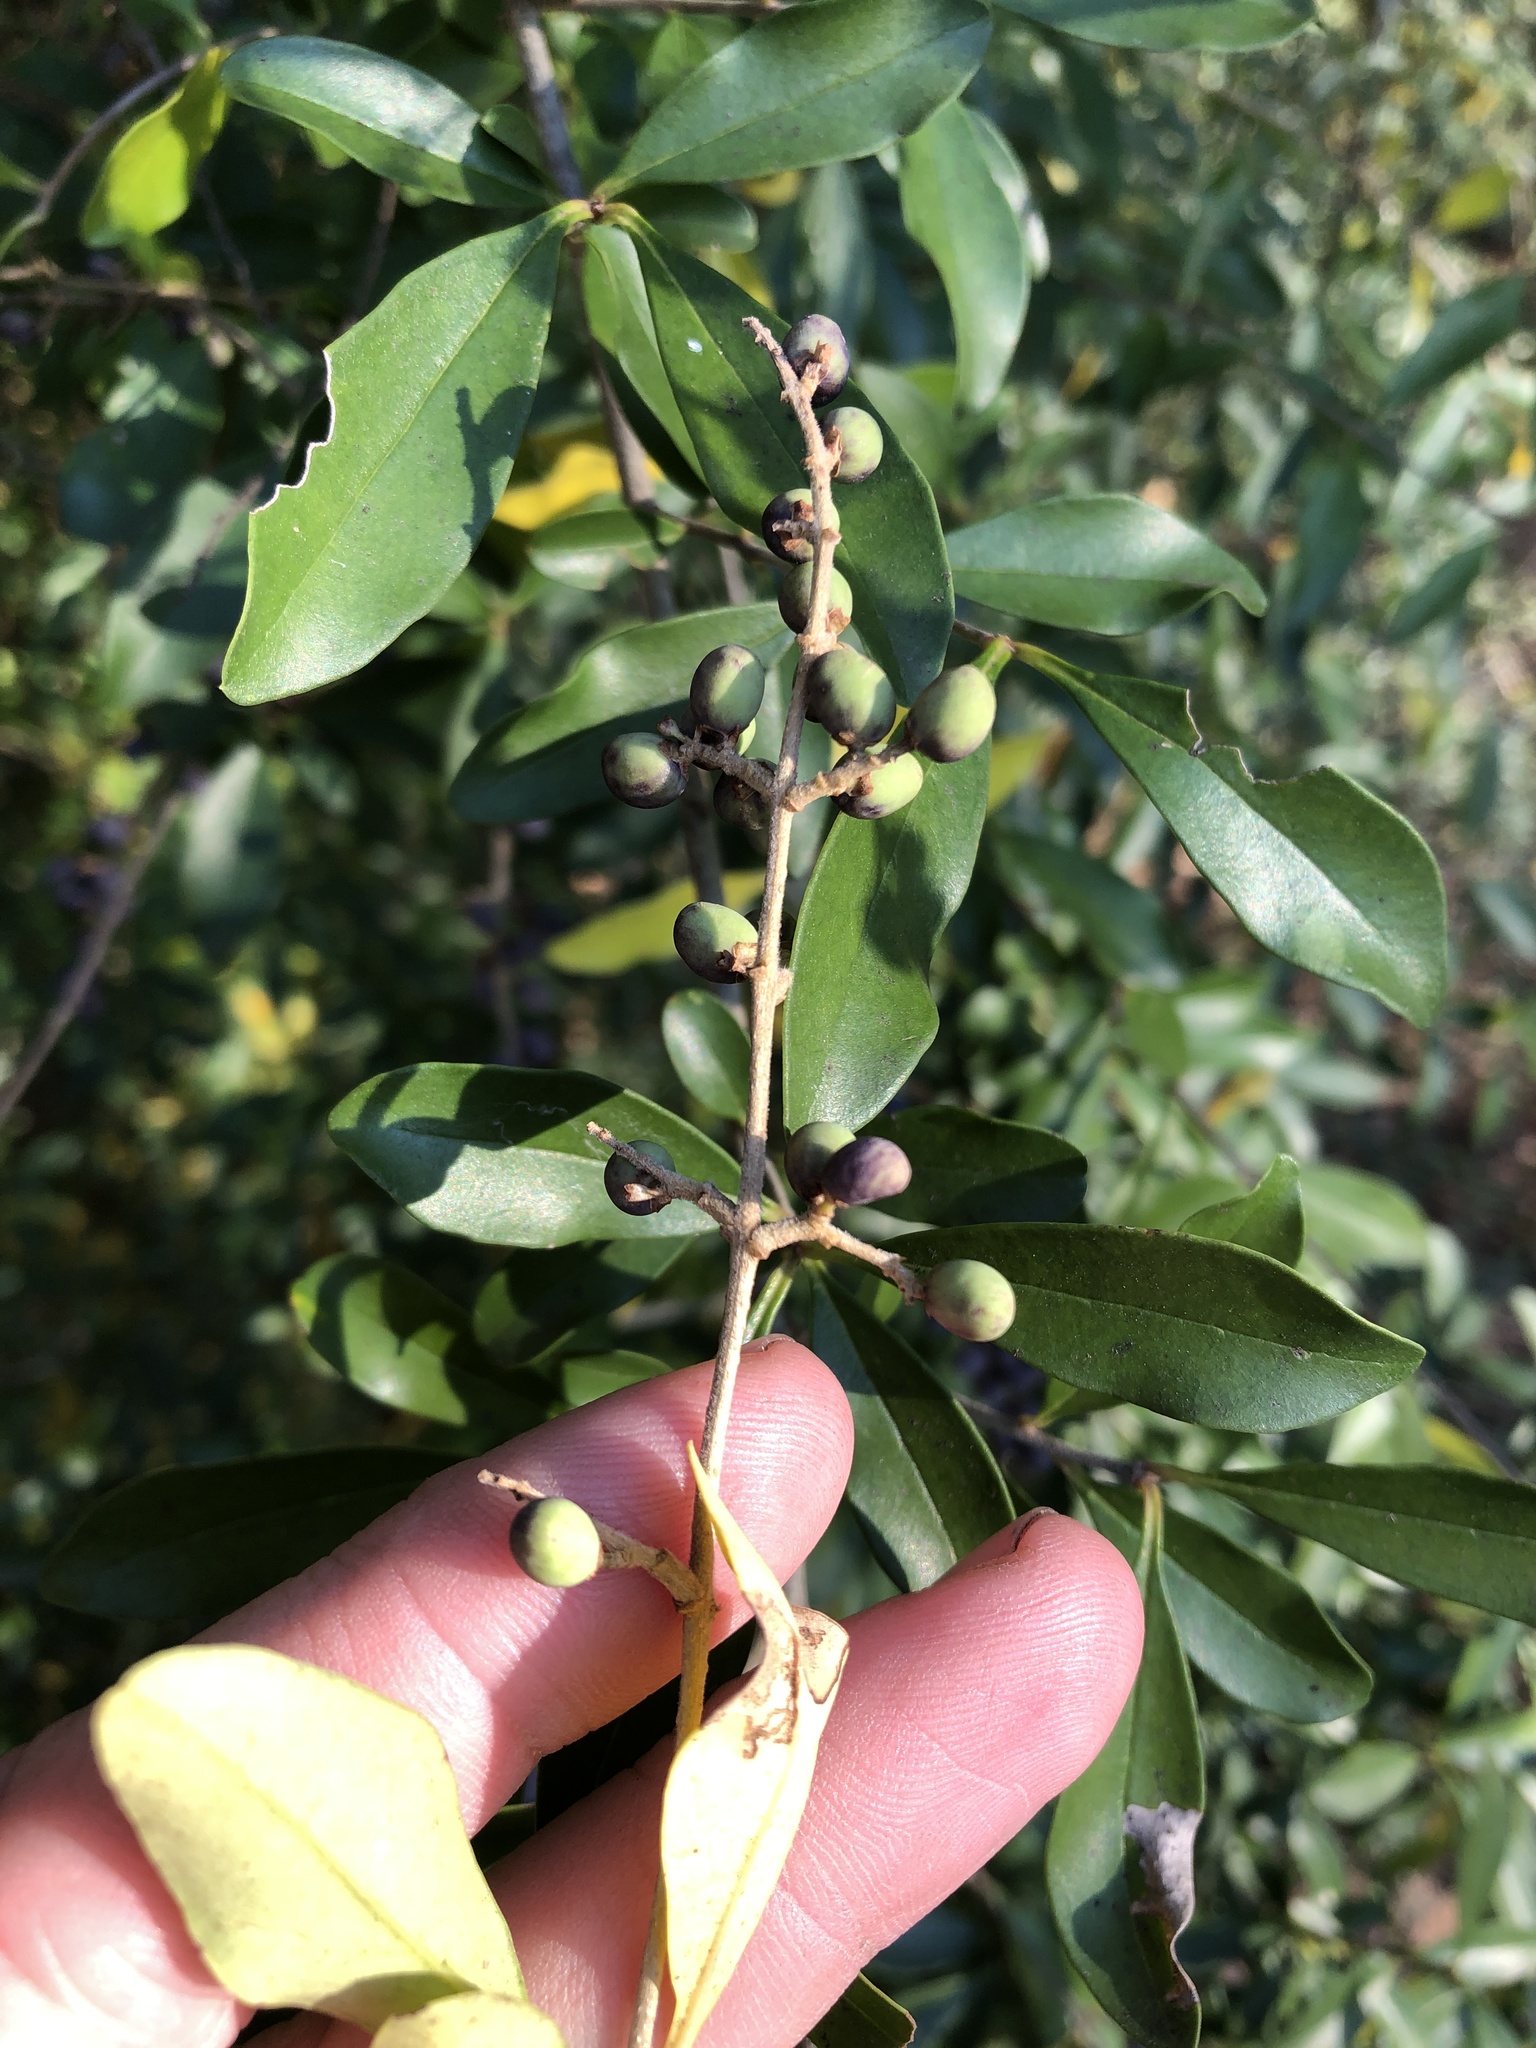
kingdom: Plantae
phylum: Tracheophyta
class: Magnoliopsida
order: Lamiales
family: Oleaceae
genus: Ligustrum
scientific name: Ligustrum quihoui
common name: Waxyleaf privet
